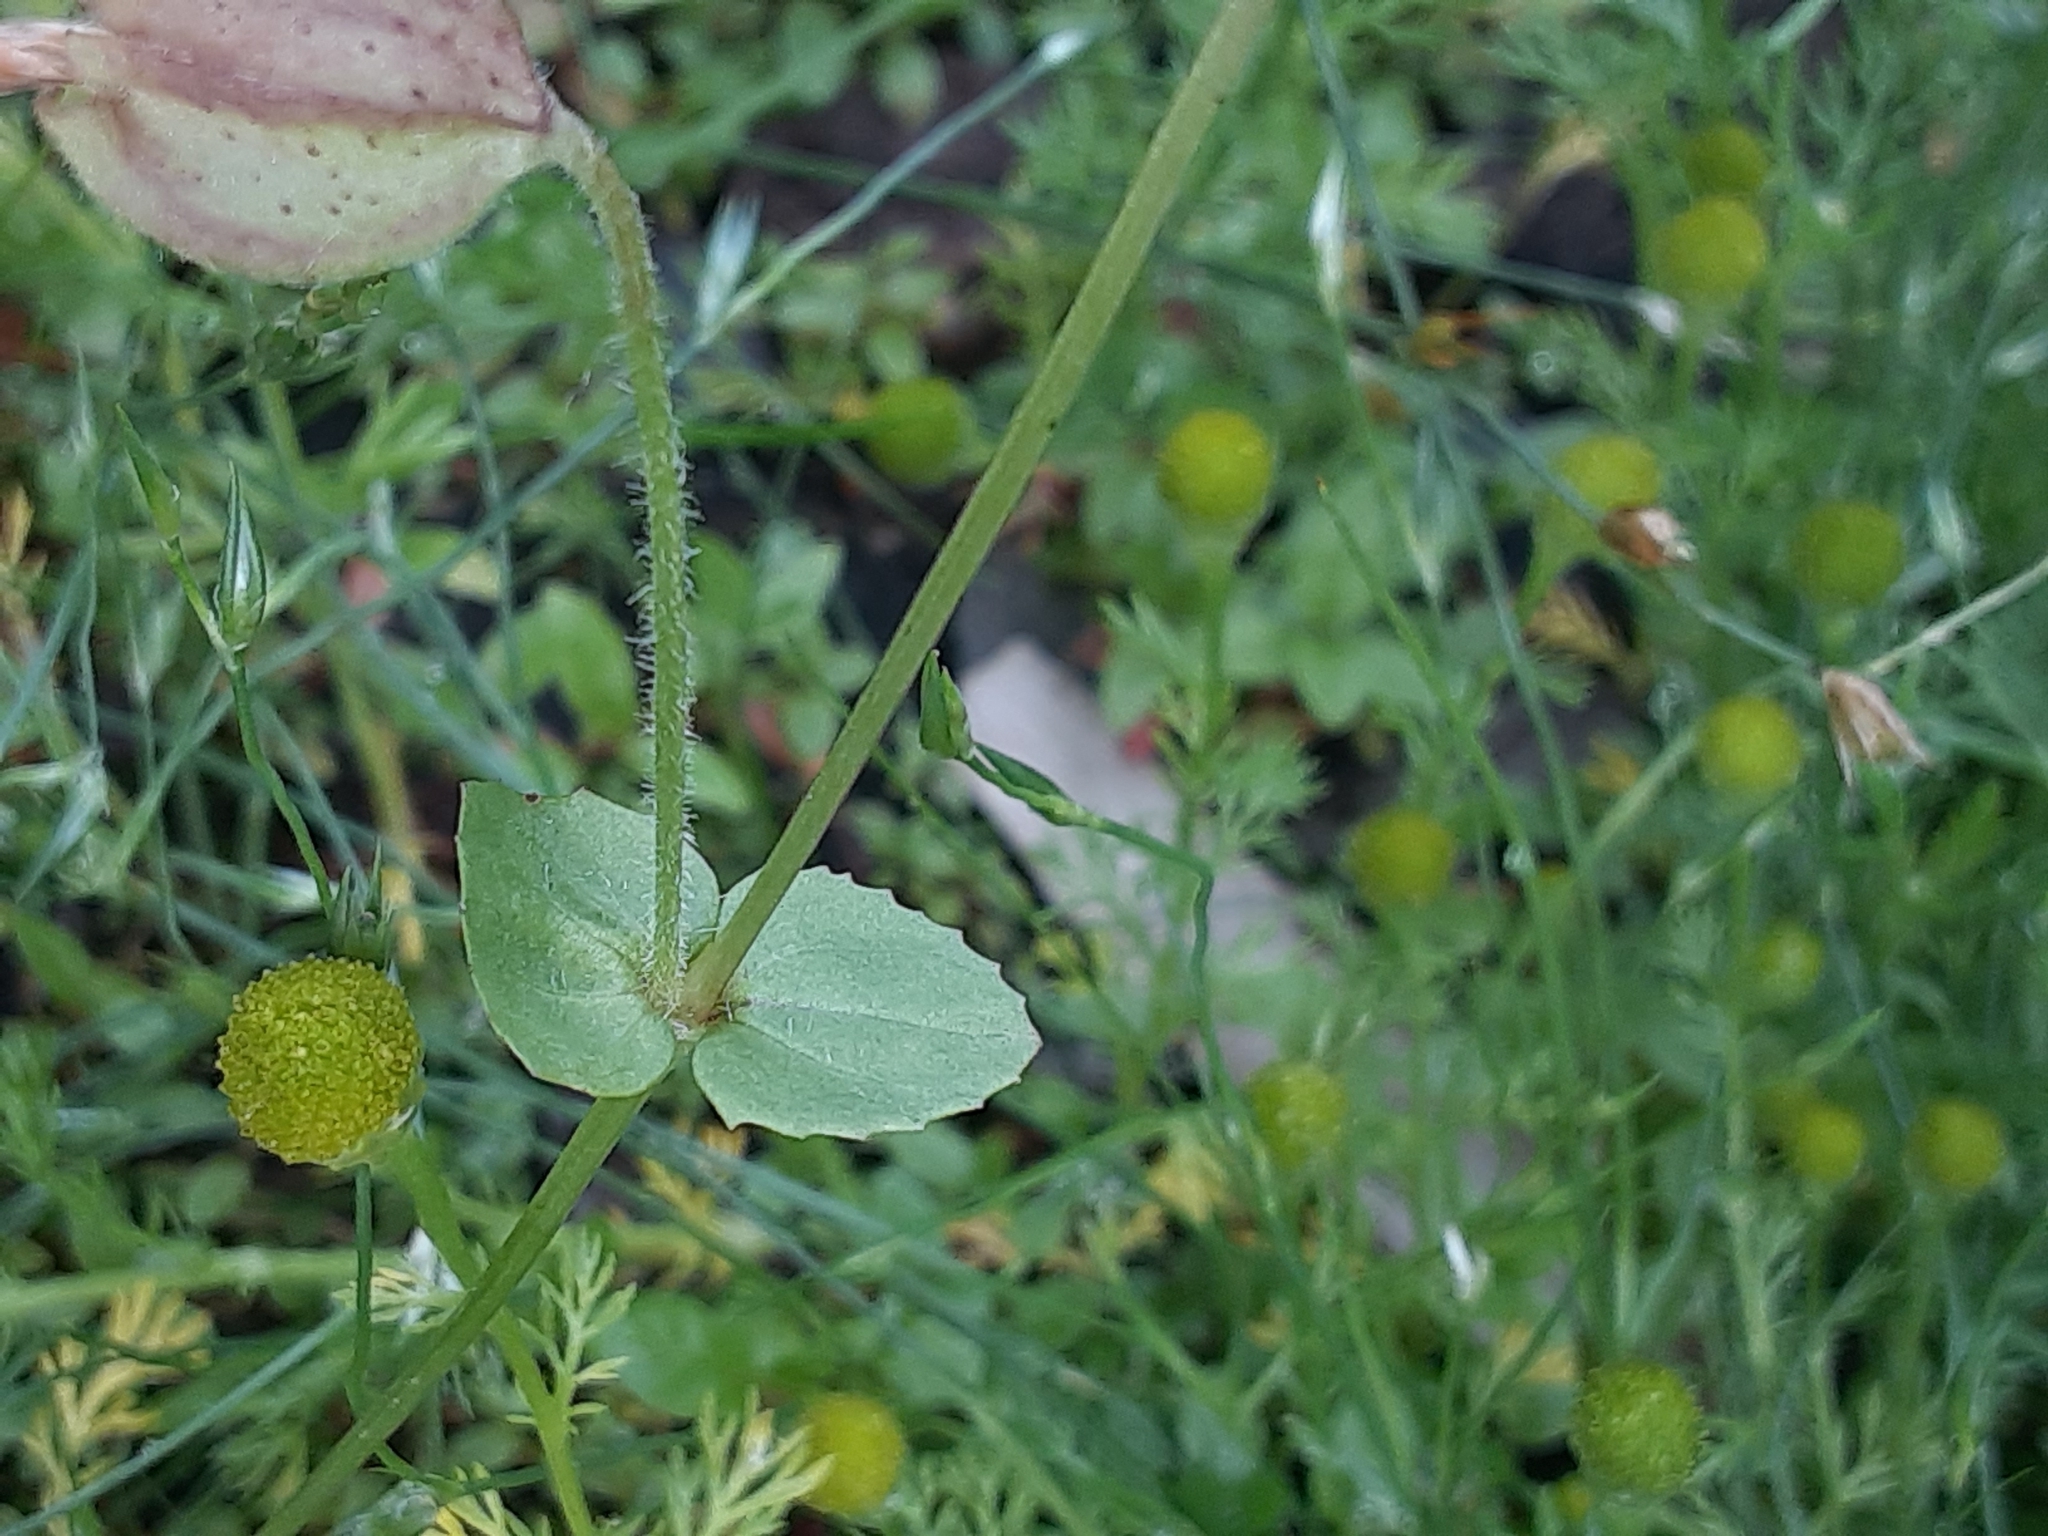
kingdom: Plantae
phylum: Tracheophyta
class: Magnoliopsida
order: Lamiales
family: Phrymaceae
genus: Erythranthe
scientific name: Erythranthe guttata
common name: Monkeyflower
